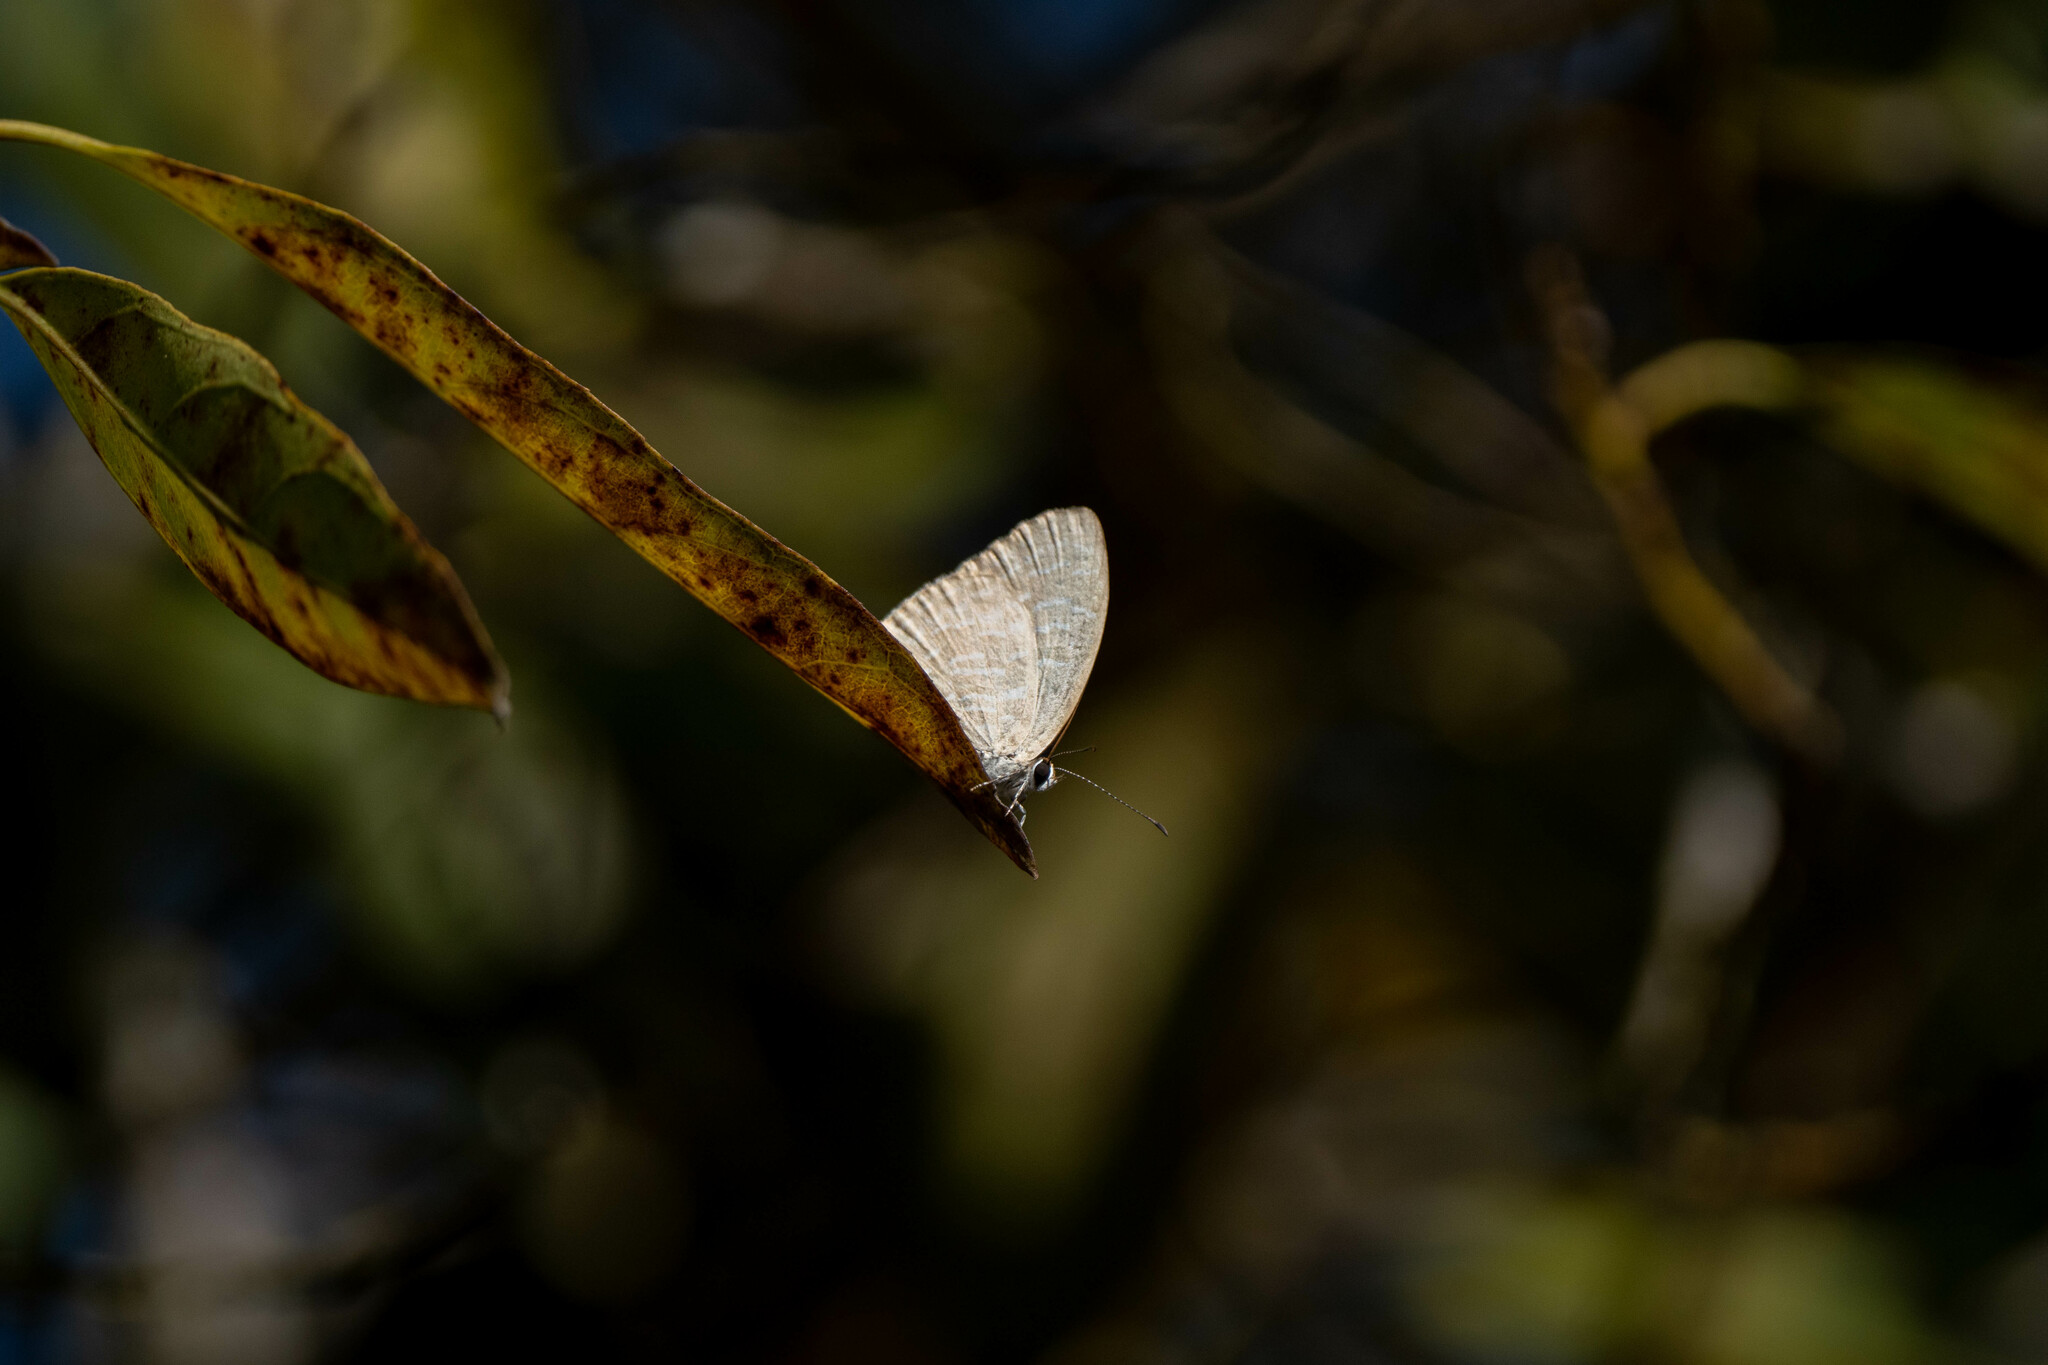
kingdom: Animalia
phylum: Arthropoda
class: Insecta
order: Lepidoptera
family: Lycaenidae
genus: Jamides
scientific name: Jamides alecto
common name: Metallic cerulean
